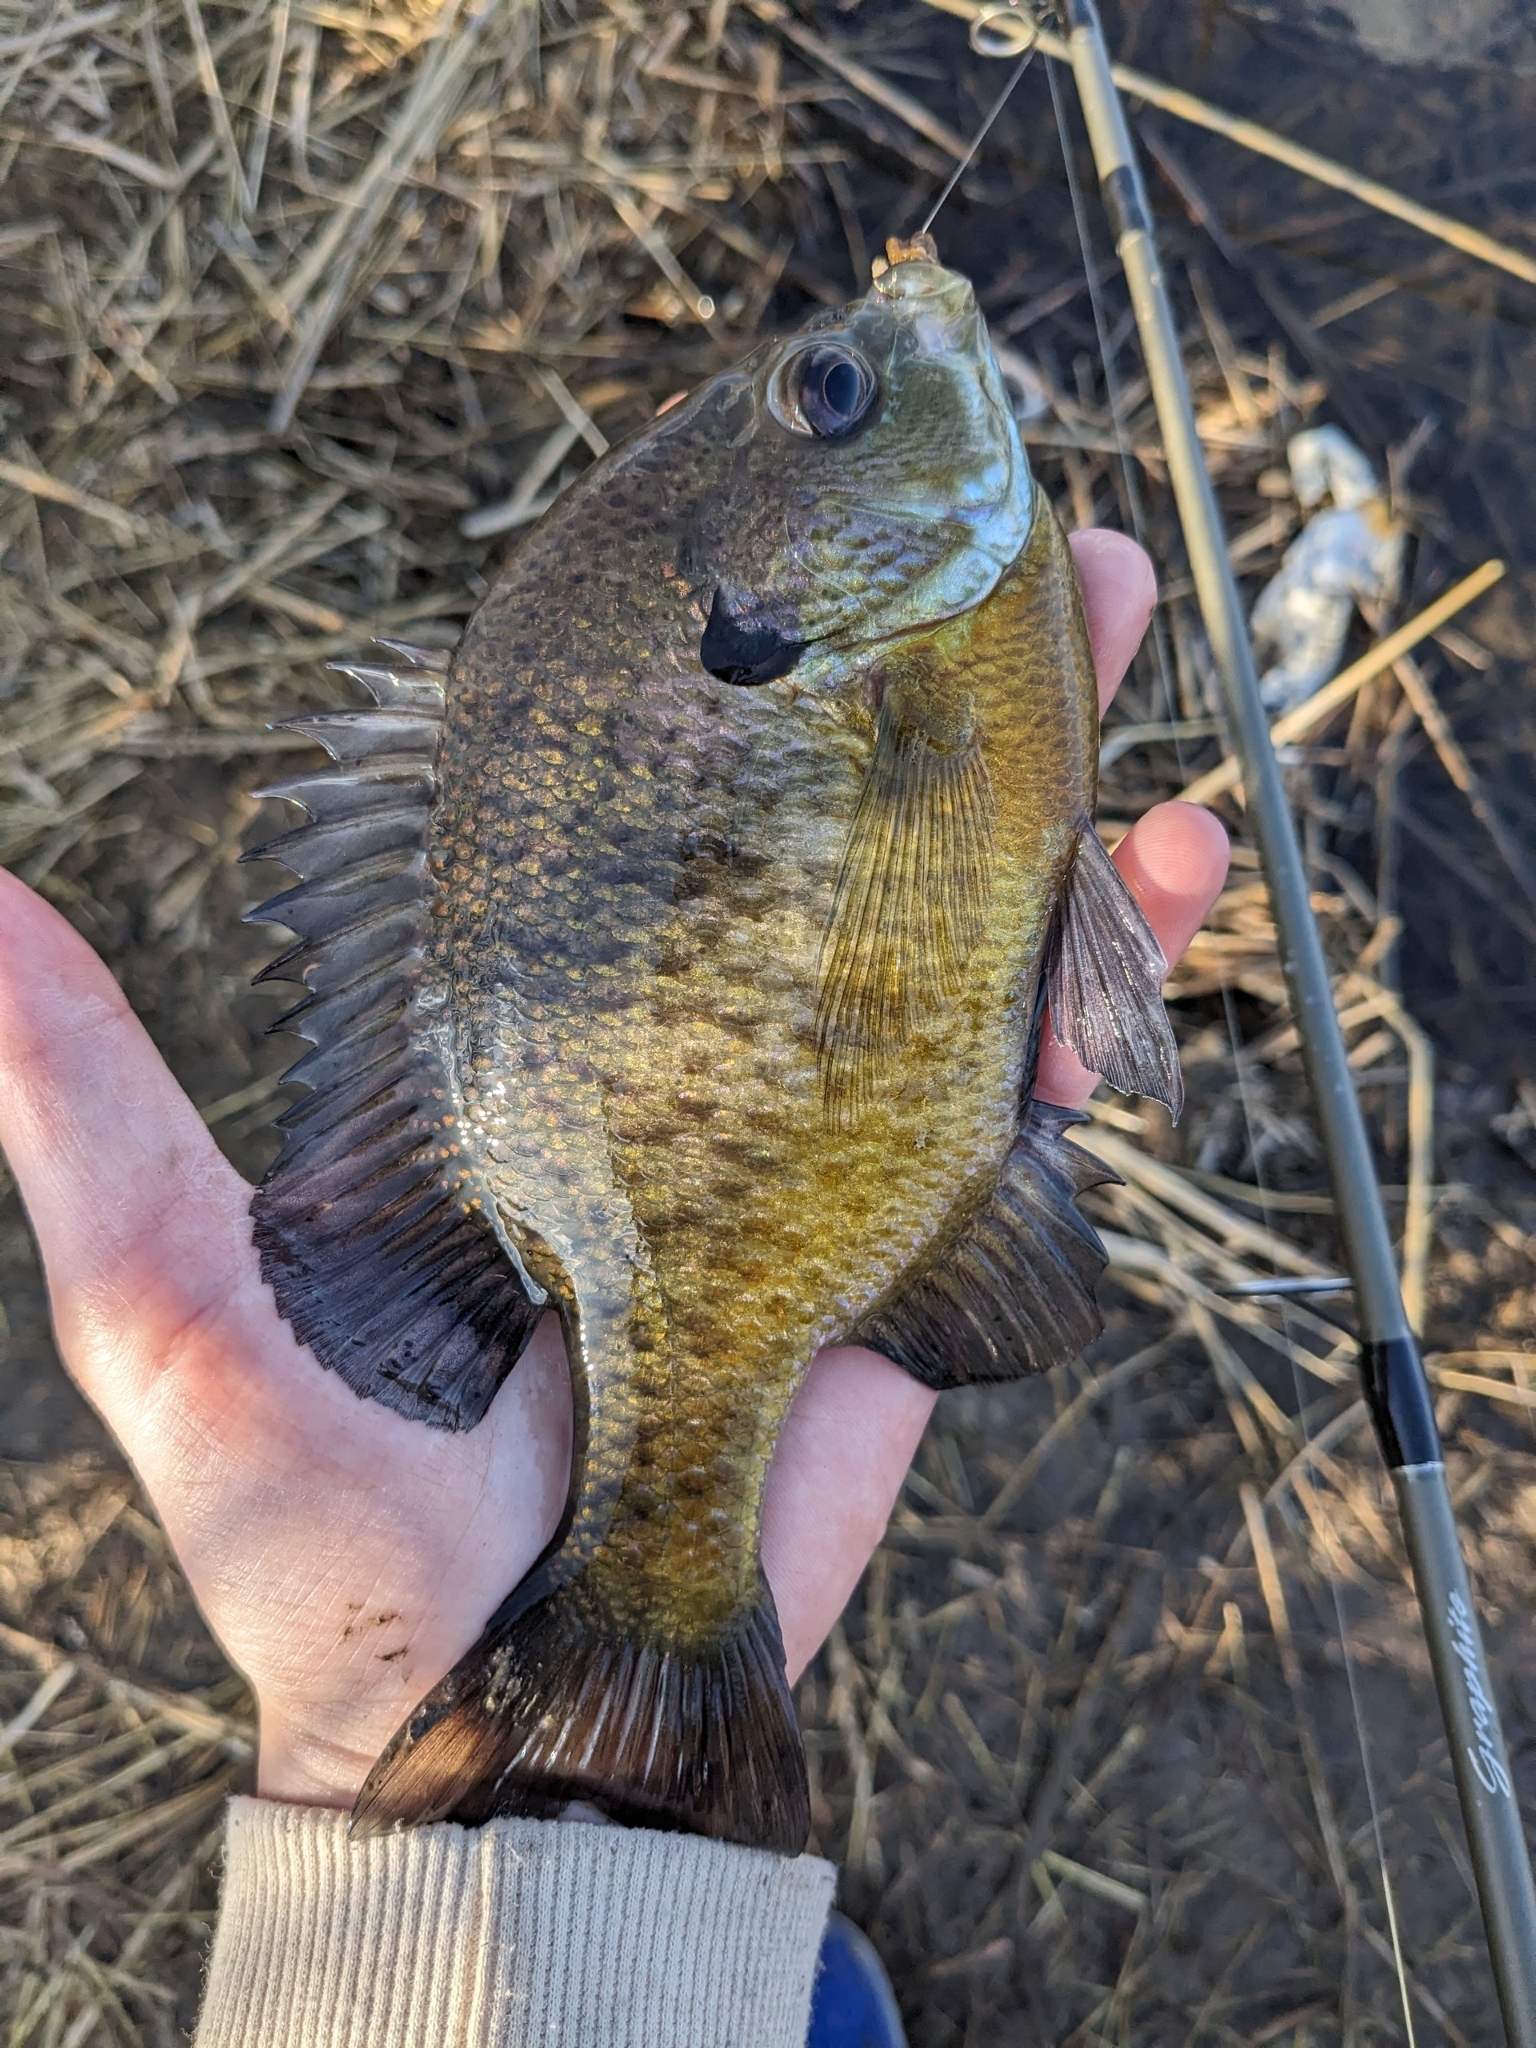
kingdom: Animalia
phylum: Chordata
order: Perciformes
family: Centrarchidae
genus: Lepomis
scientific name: Lepomis macrochirus
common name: Bluegill
